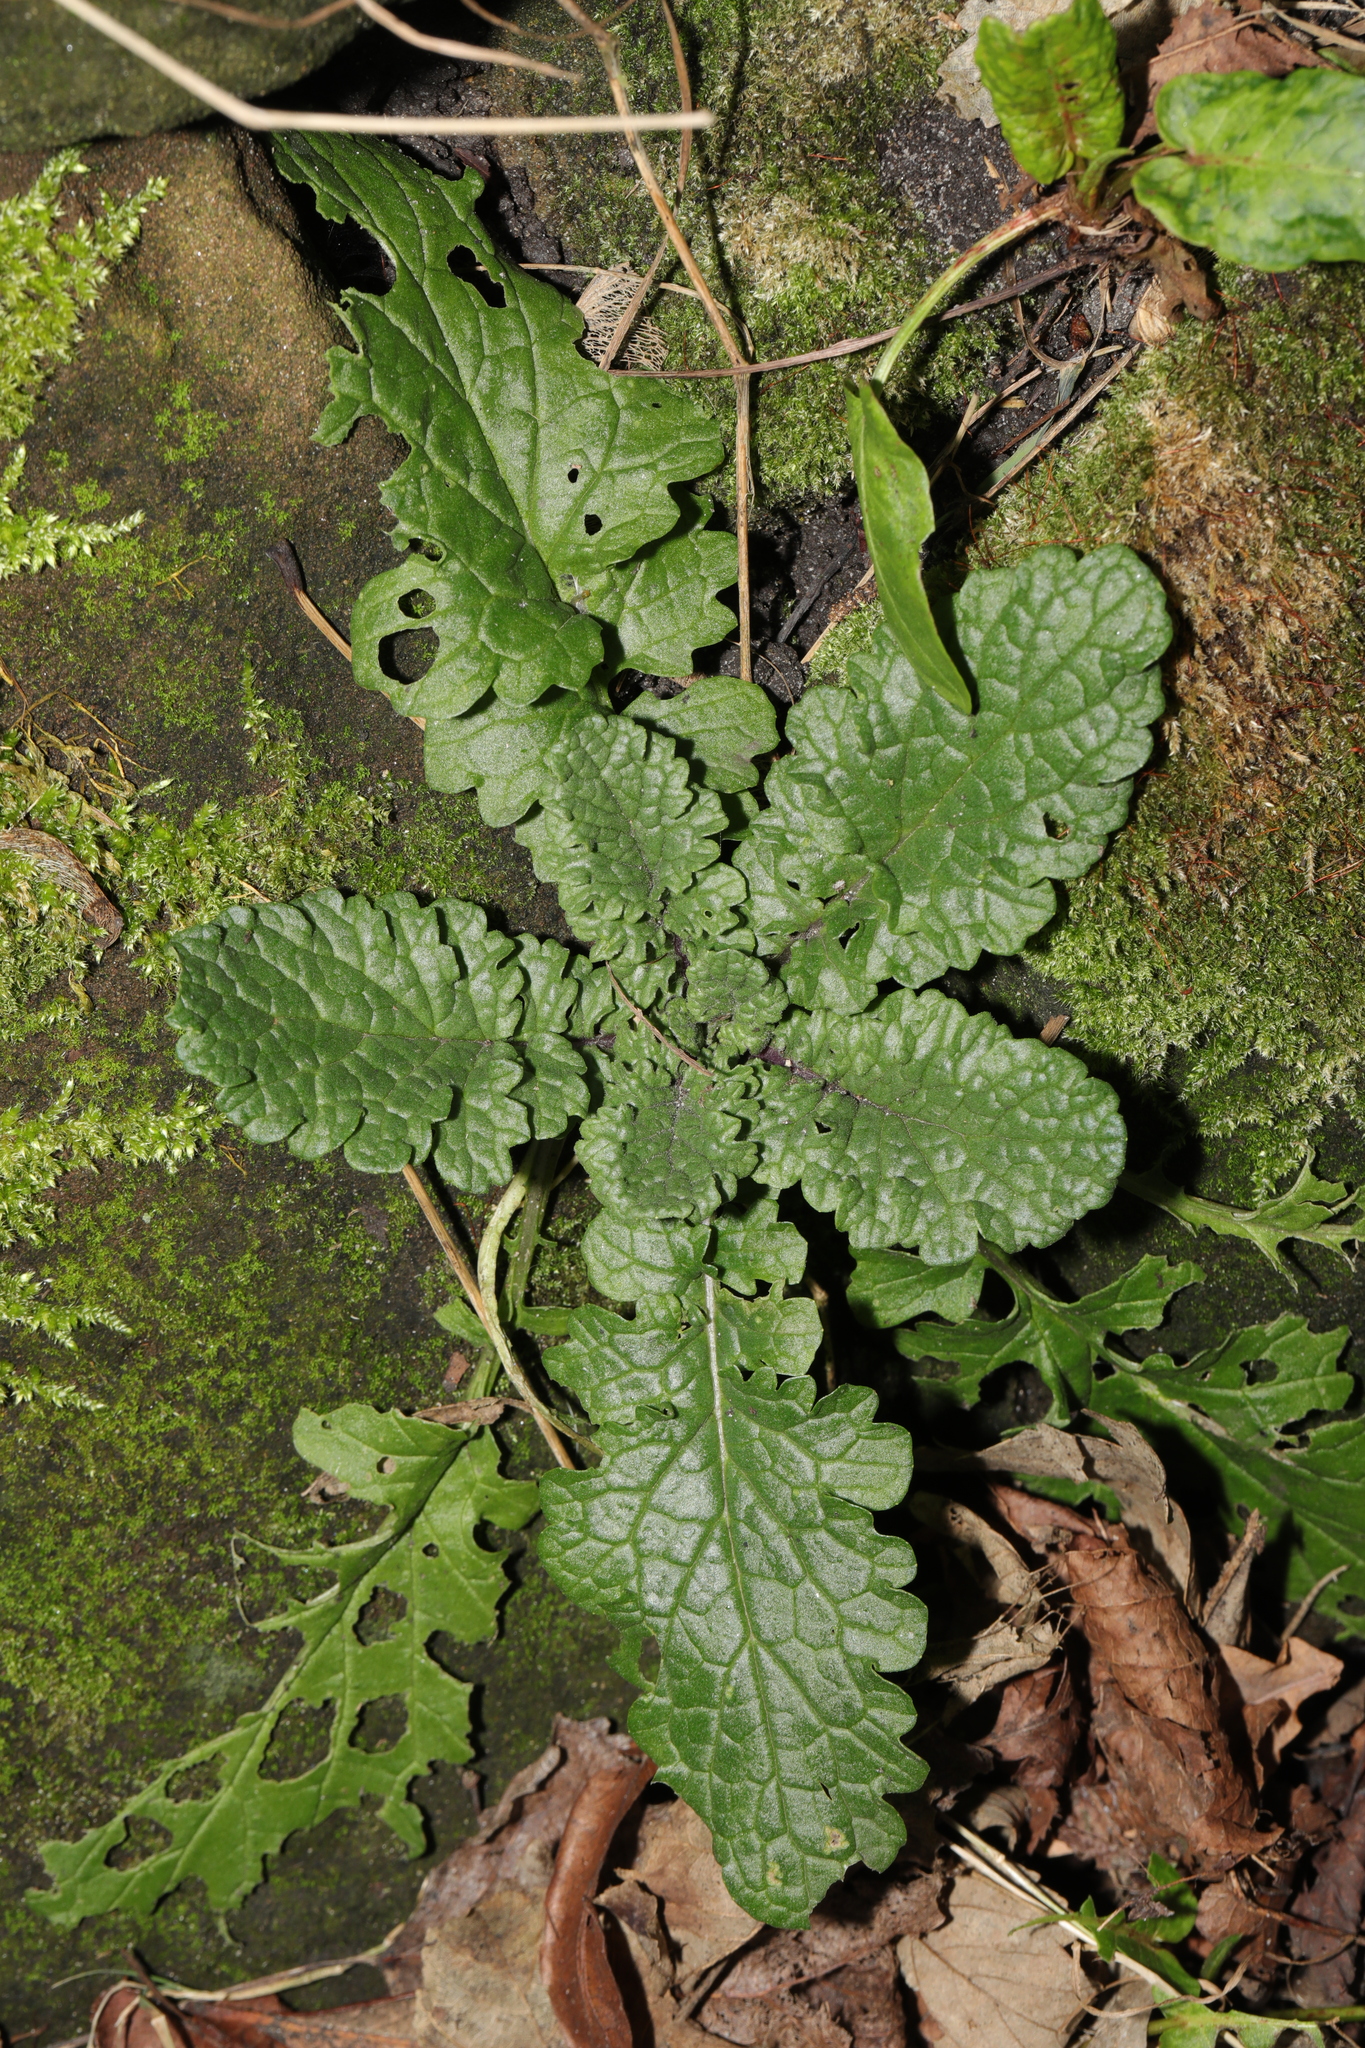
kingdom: Plantae
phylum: Tracheophyta
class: Magnoliopsida
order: Asterales
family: Asteraceae
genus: Jacobaea
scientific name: Jacobaea vulgaris
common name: Stinking willie
